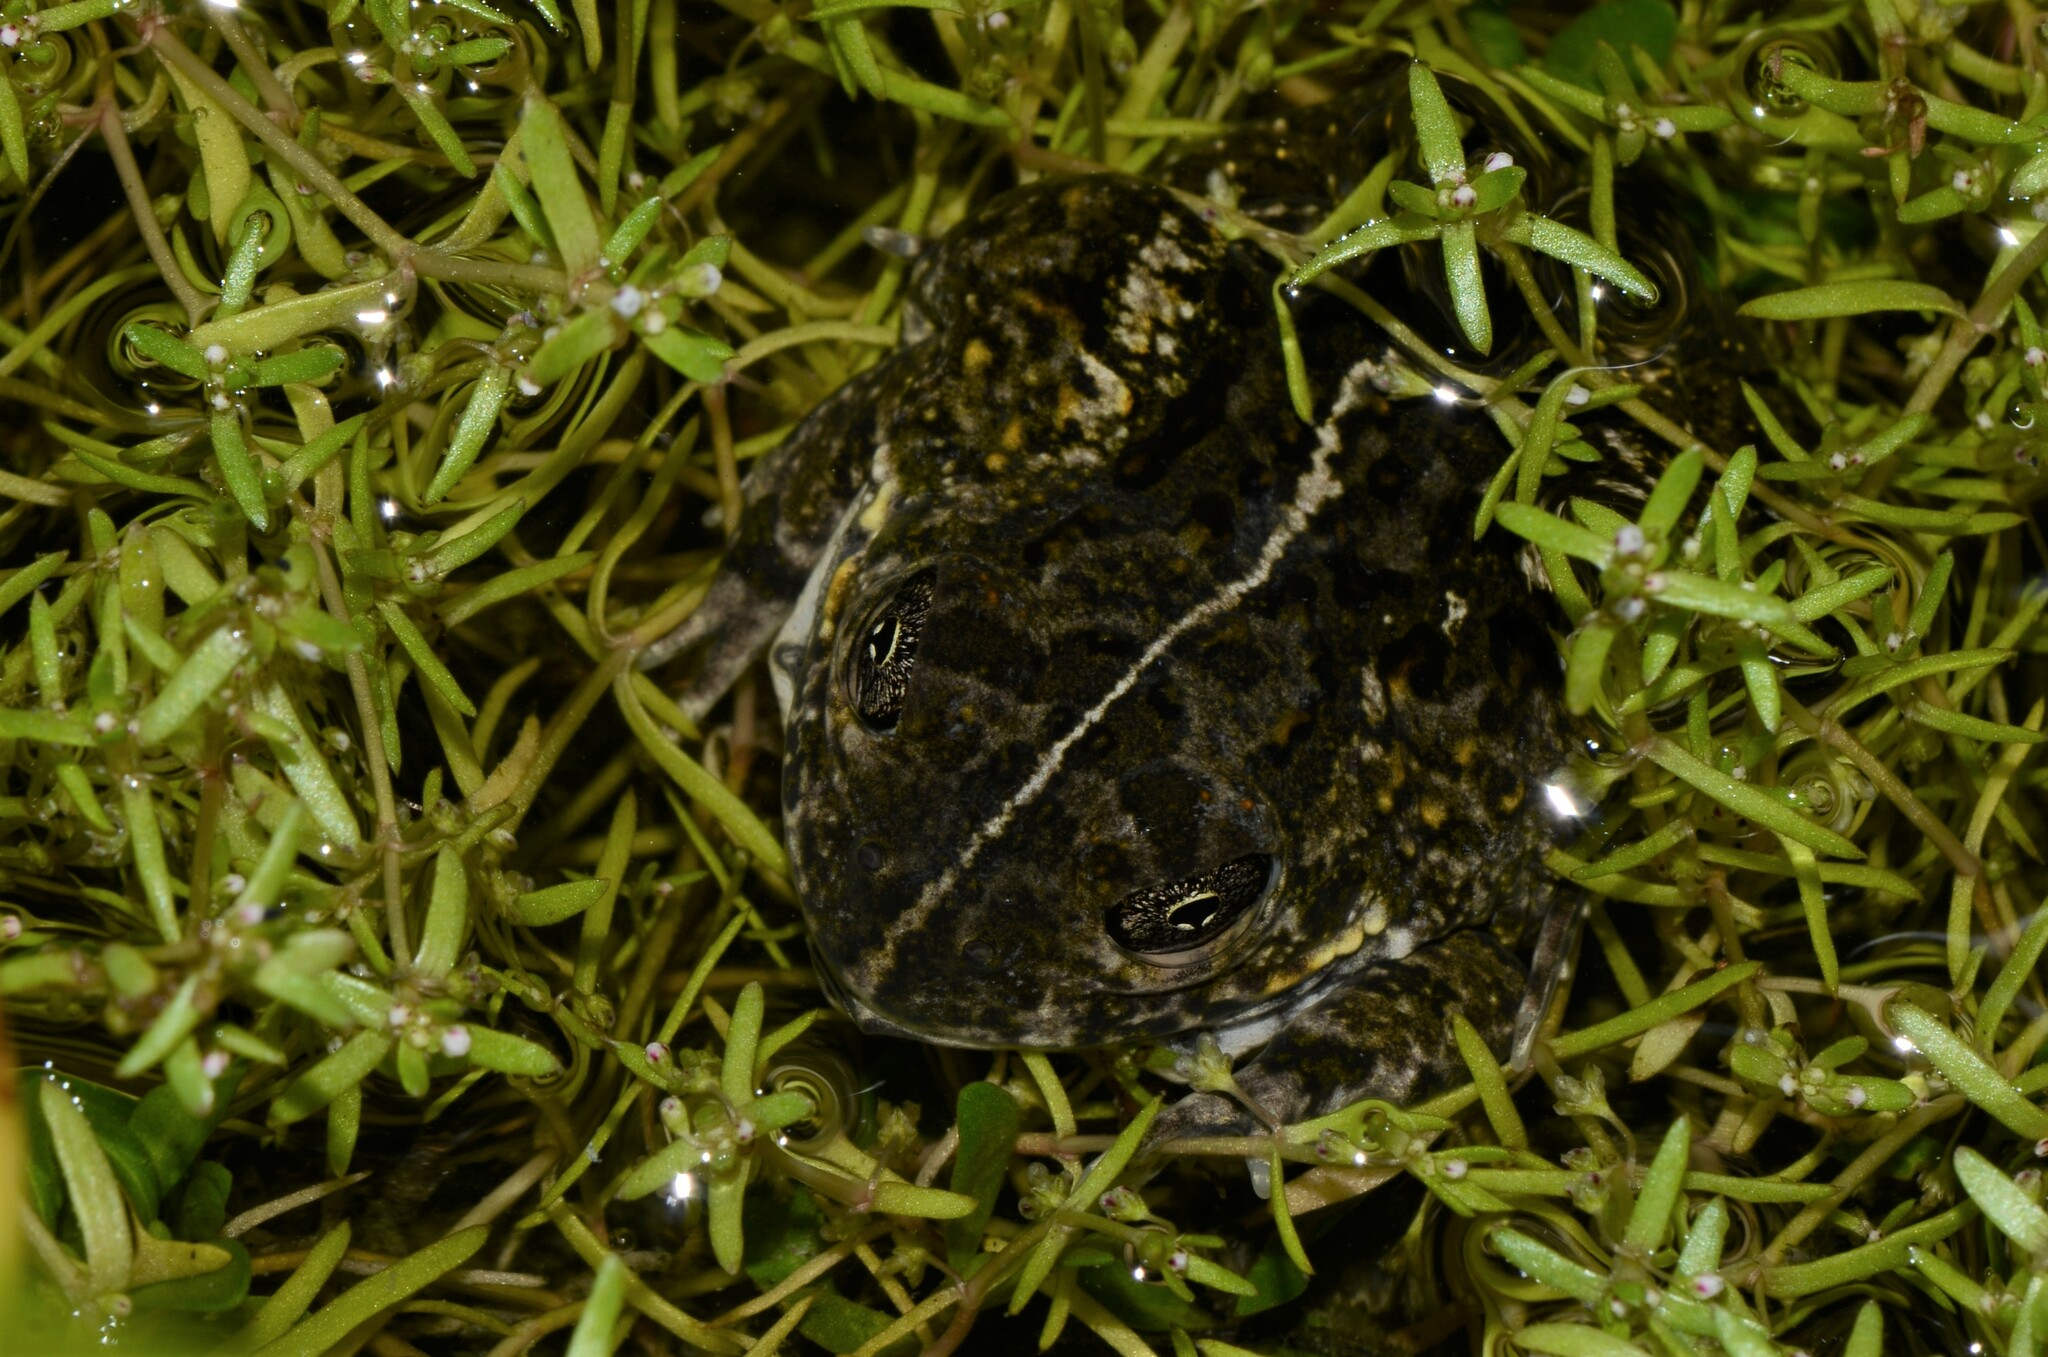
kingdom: Animalia
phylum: Chordata
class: Amphibia
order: Anura
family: Pyxicephalidae
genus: Tomopterna
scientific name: Tomopterna delalandii
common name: Delalande's burrowing bullfrog
